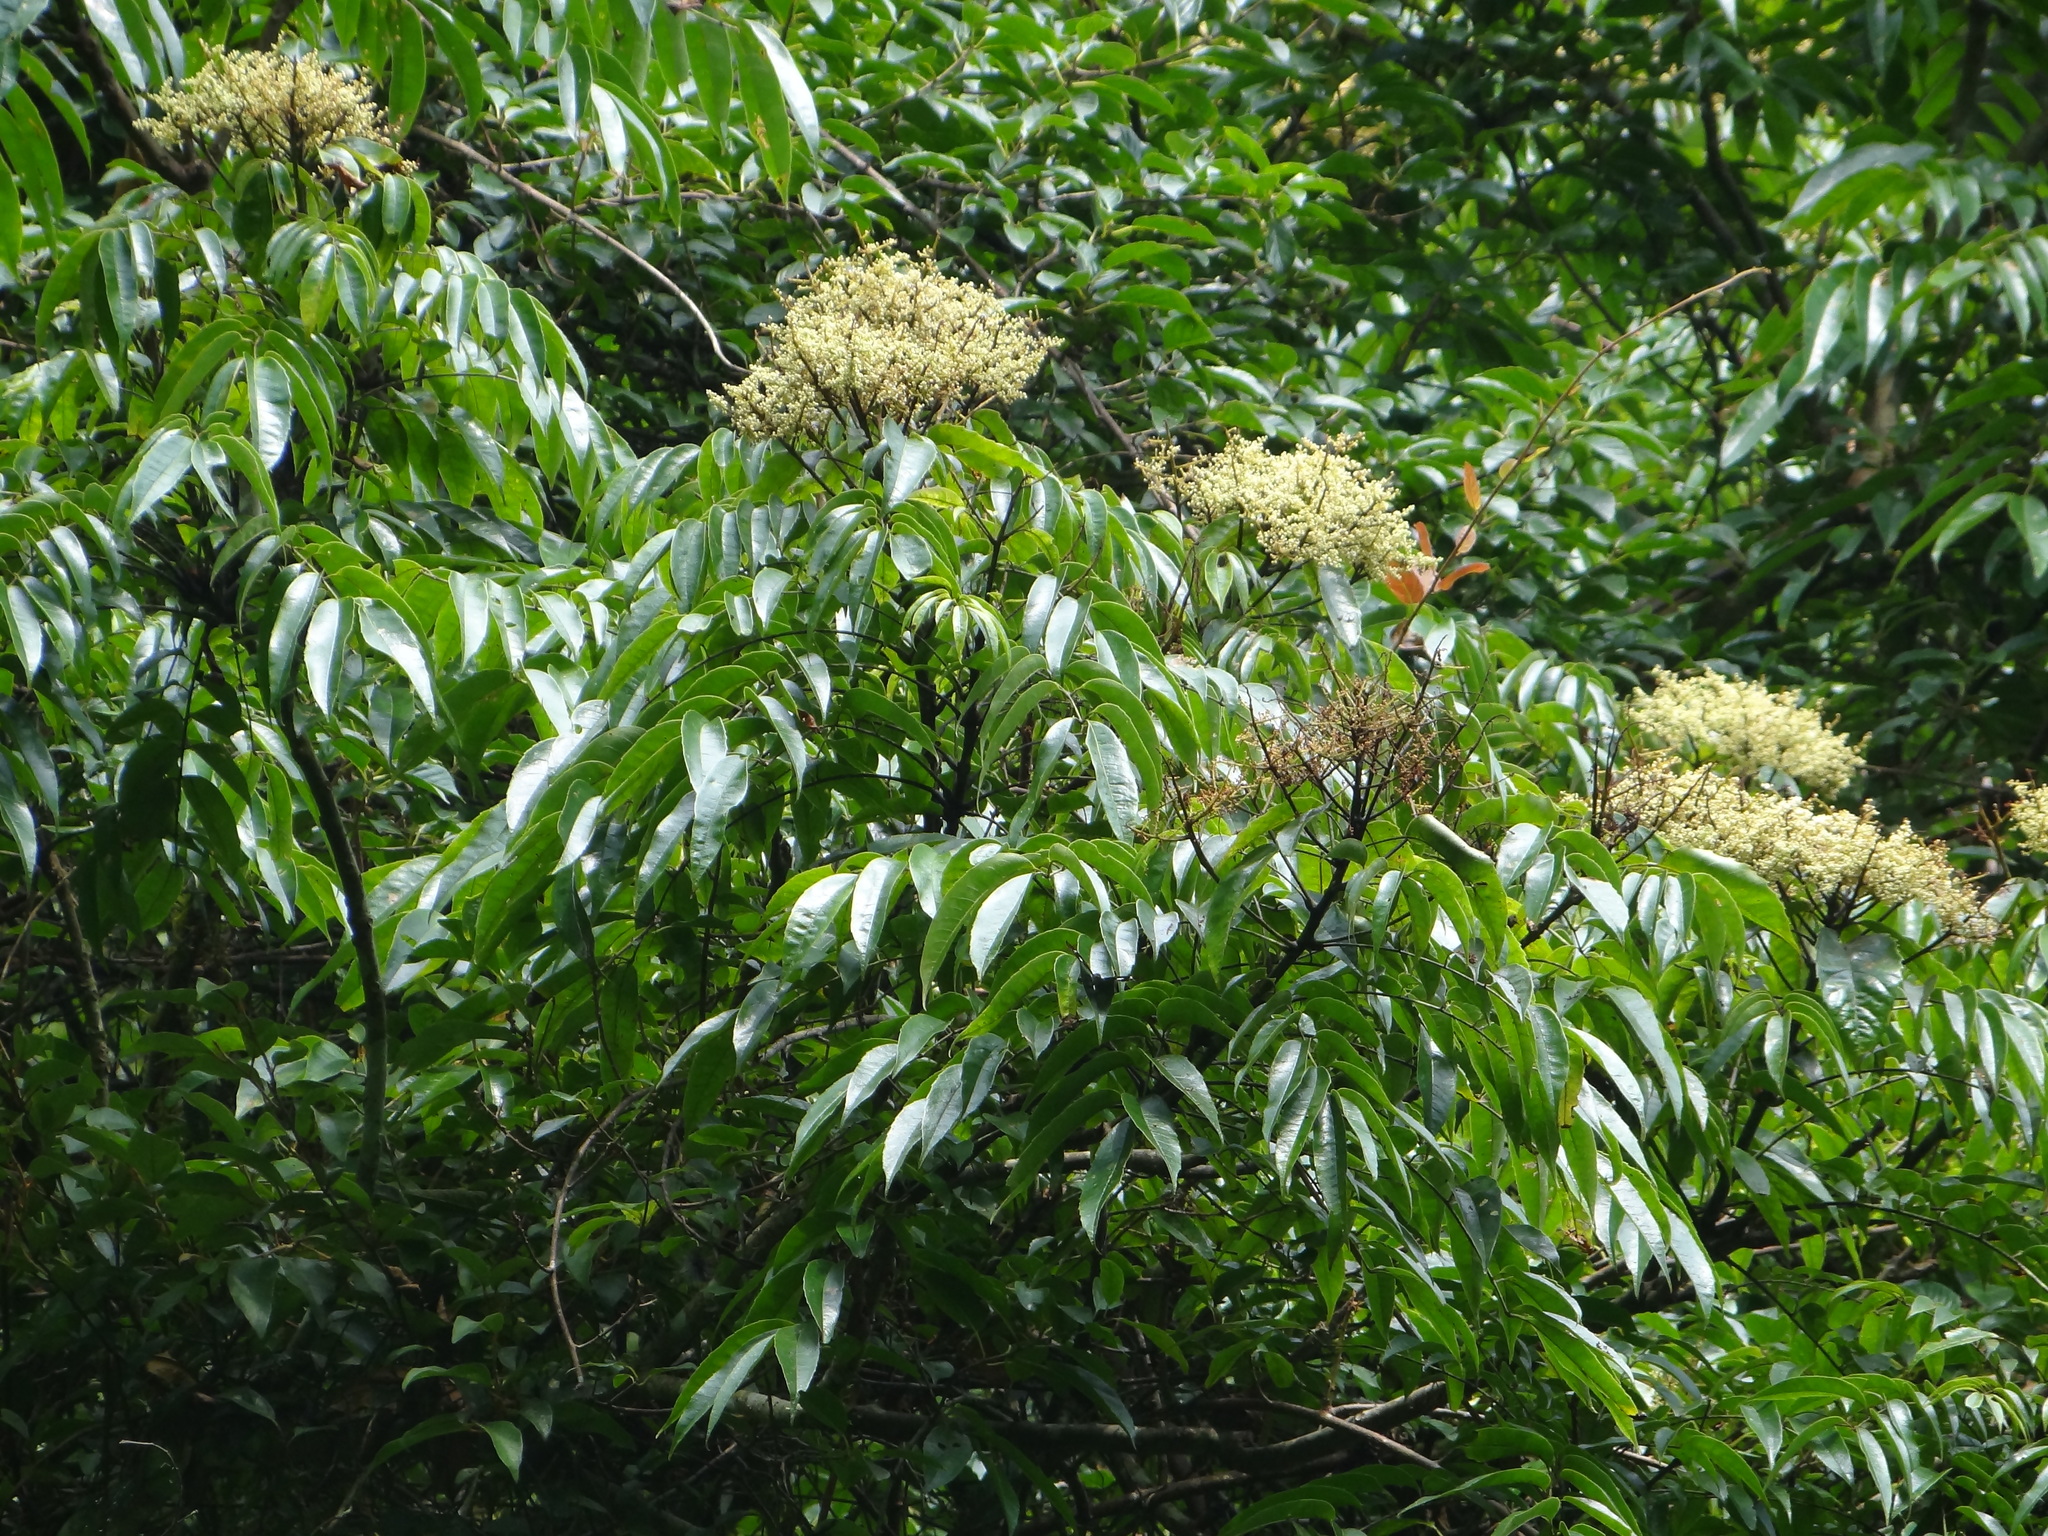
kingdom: Plantae
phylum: Tracheophyta
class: Magnoliopsida
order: Proteales
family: Sabiaceae
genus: Meliosma
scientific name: Meliosma rhoifolia
